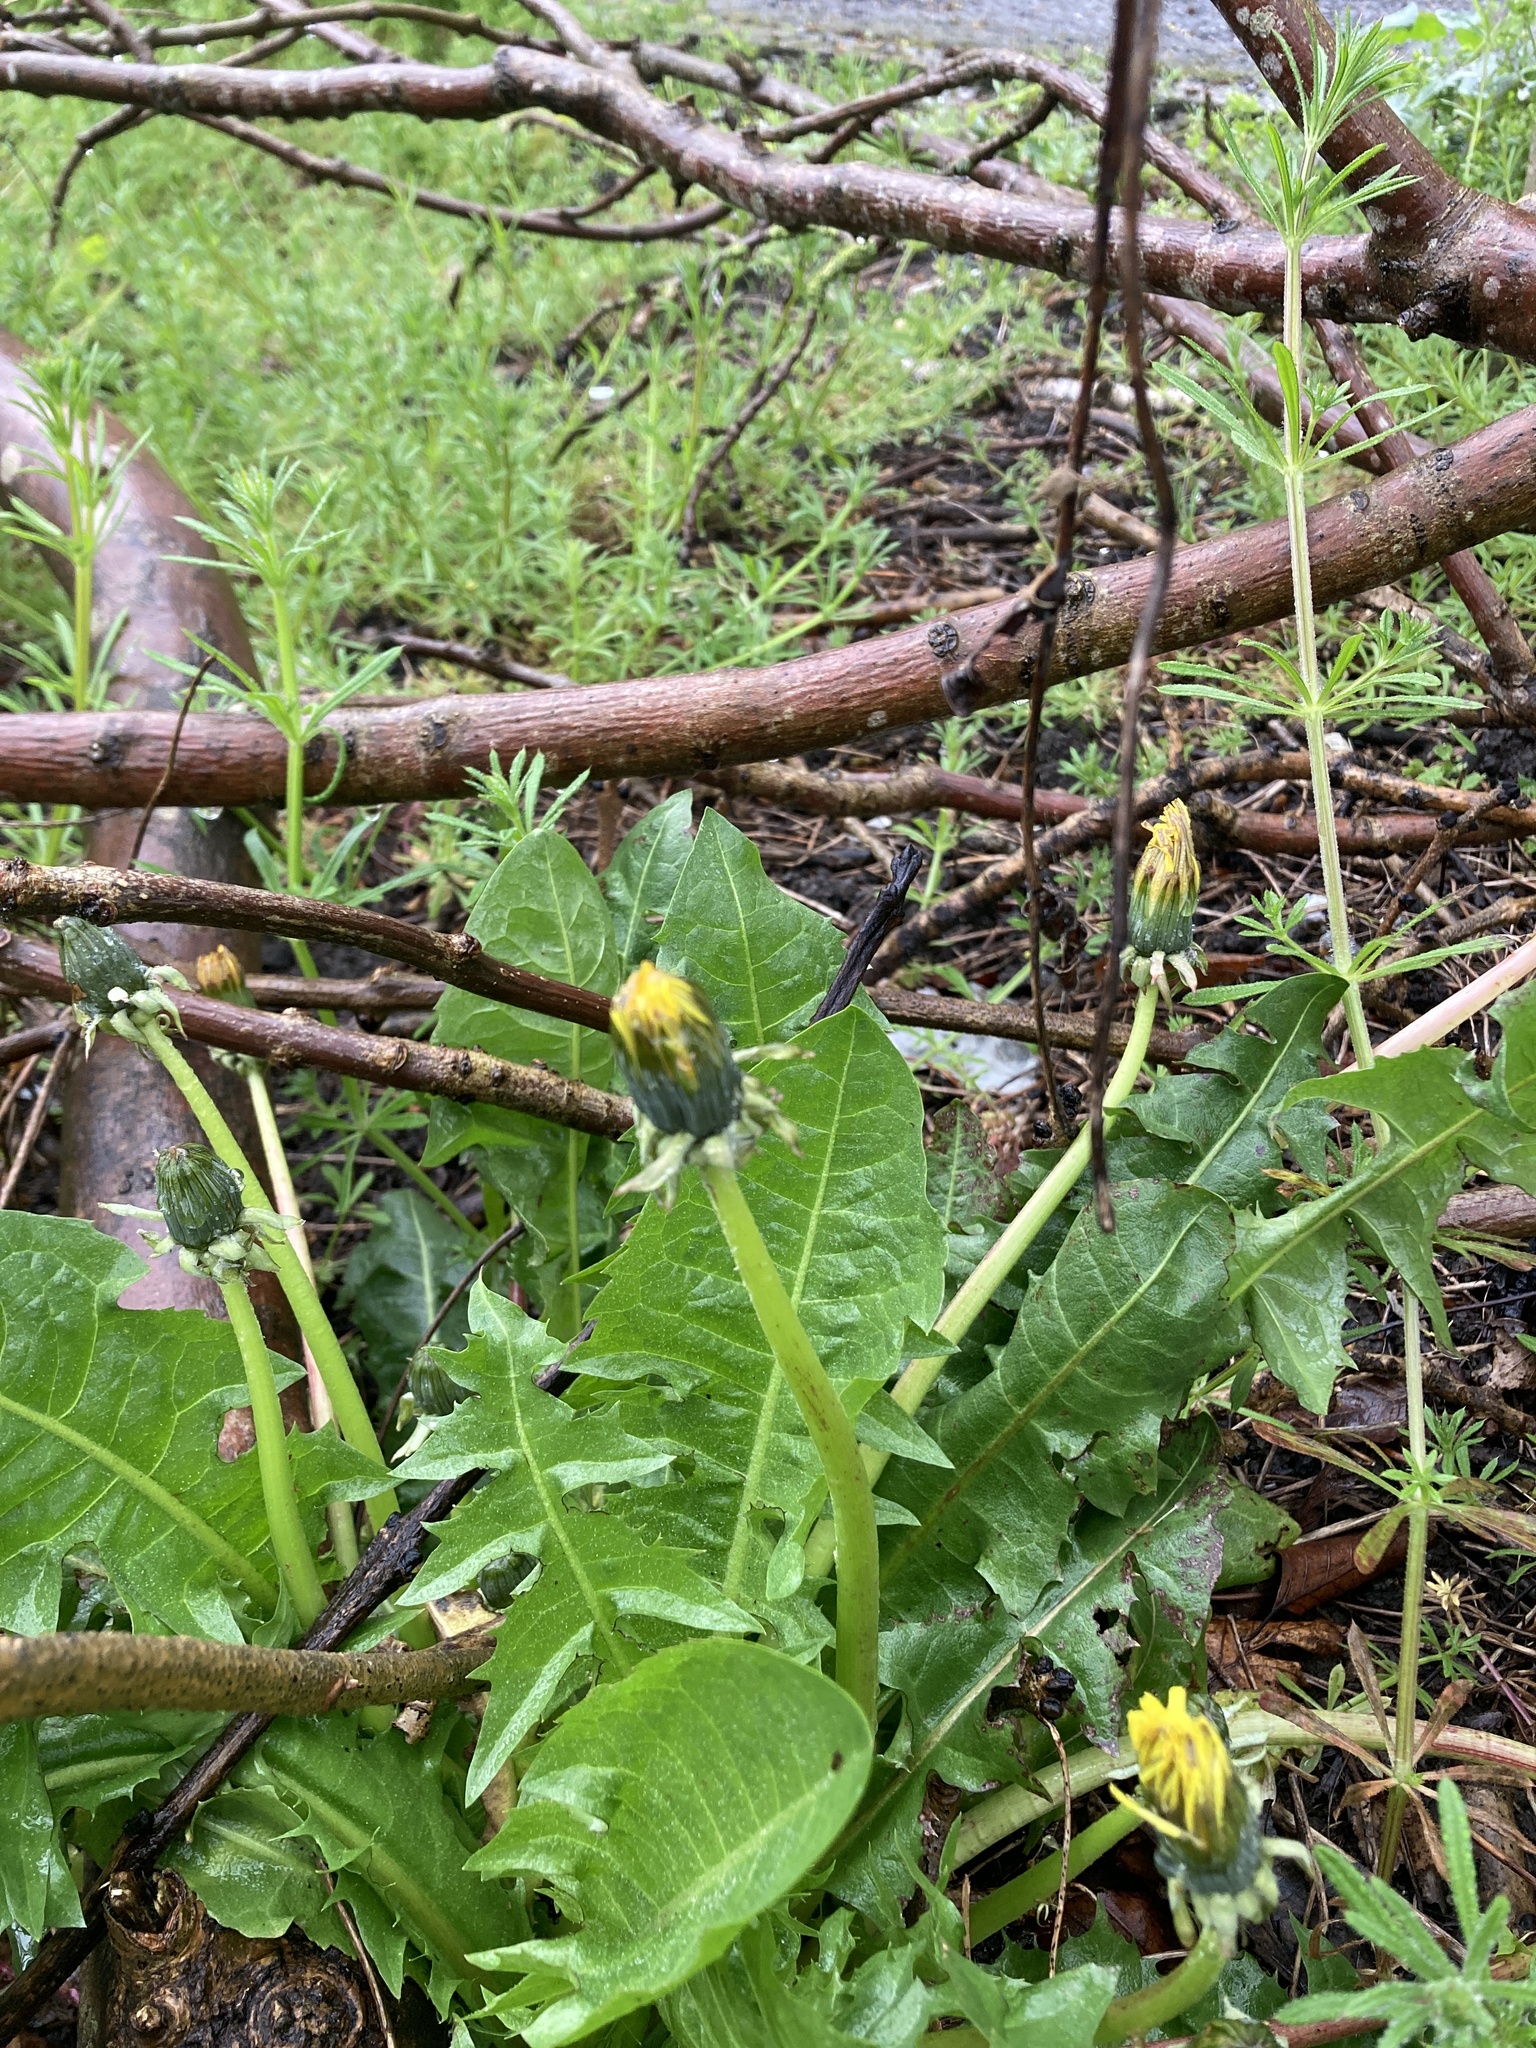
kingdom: Plantae
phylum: Tracheophyta
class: Magnoliopsida
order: Asterales
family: Asteraceae
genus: Taraxacum
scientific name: Taraxacum officinale
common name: Common dandelion
